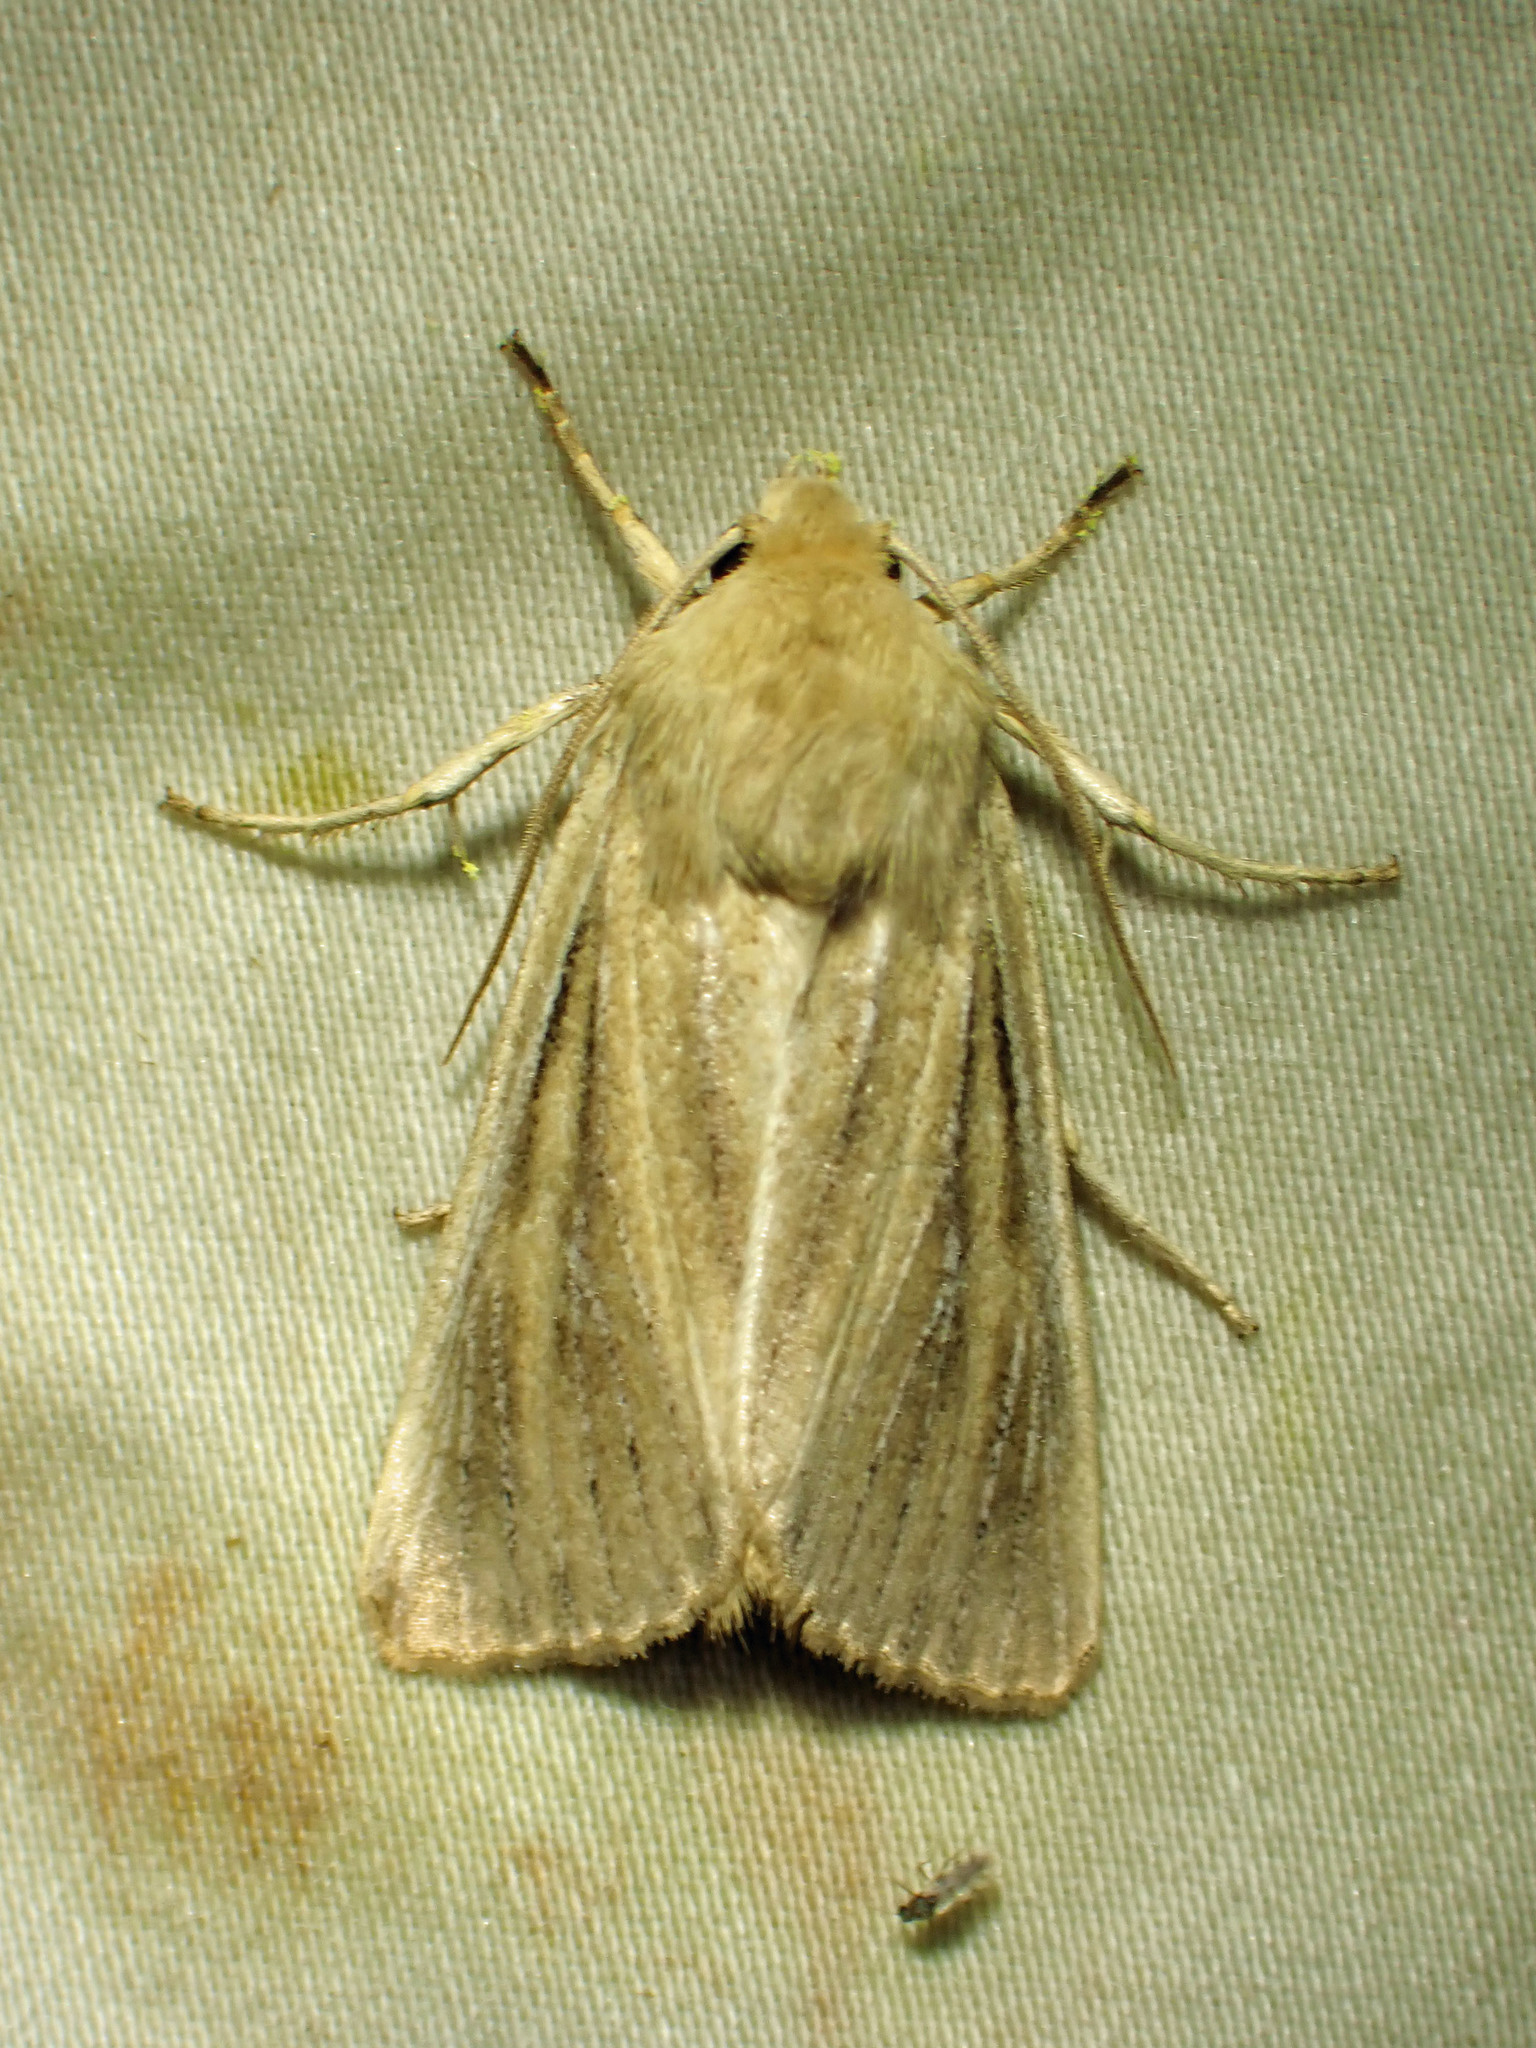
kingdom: Animalia
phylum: Arthropoda
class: Insecta
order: Lepidoptera
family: Noctuidae
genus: Apamea
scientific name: Apamea lintneri
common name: Sand wainscot
